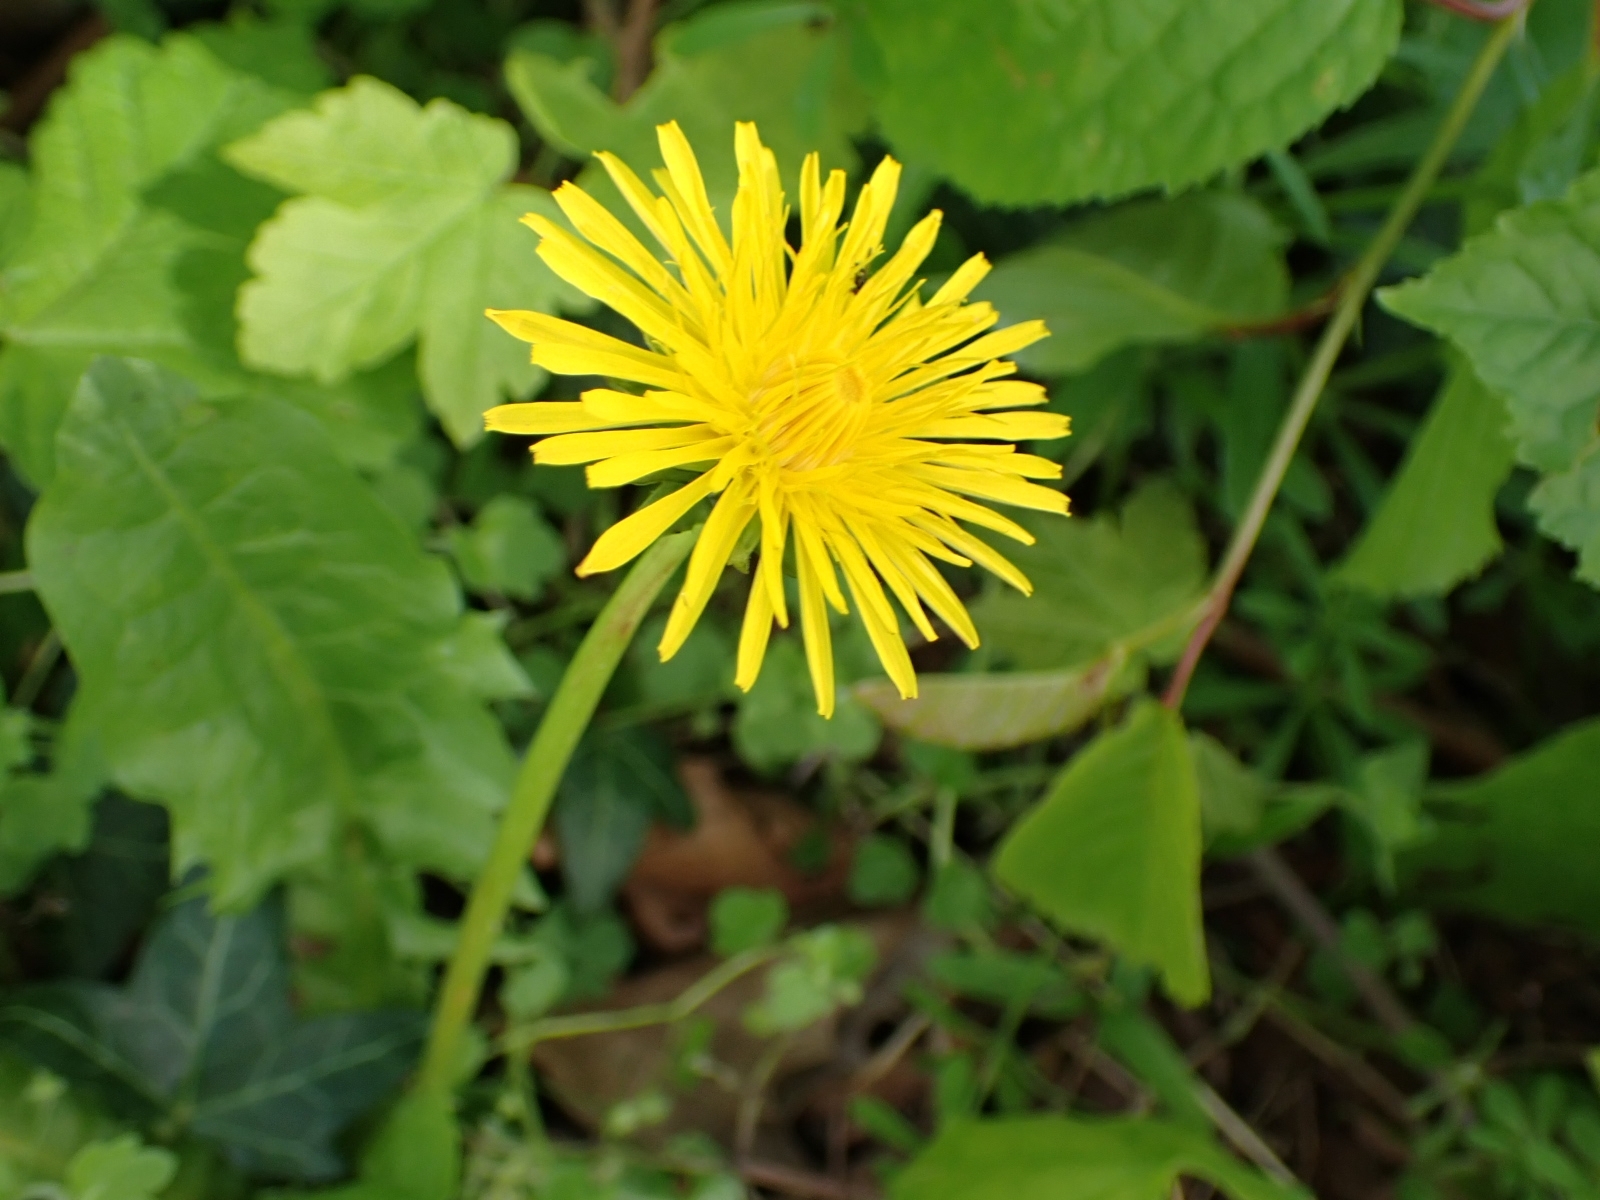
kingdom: Plantae
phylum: Tracheophyta
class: Magnoliopsida
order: Asterales
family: Asteraceae
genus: Taraxacum
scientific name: Taraxacum officinale
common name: Common dandelion
